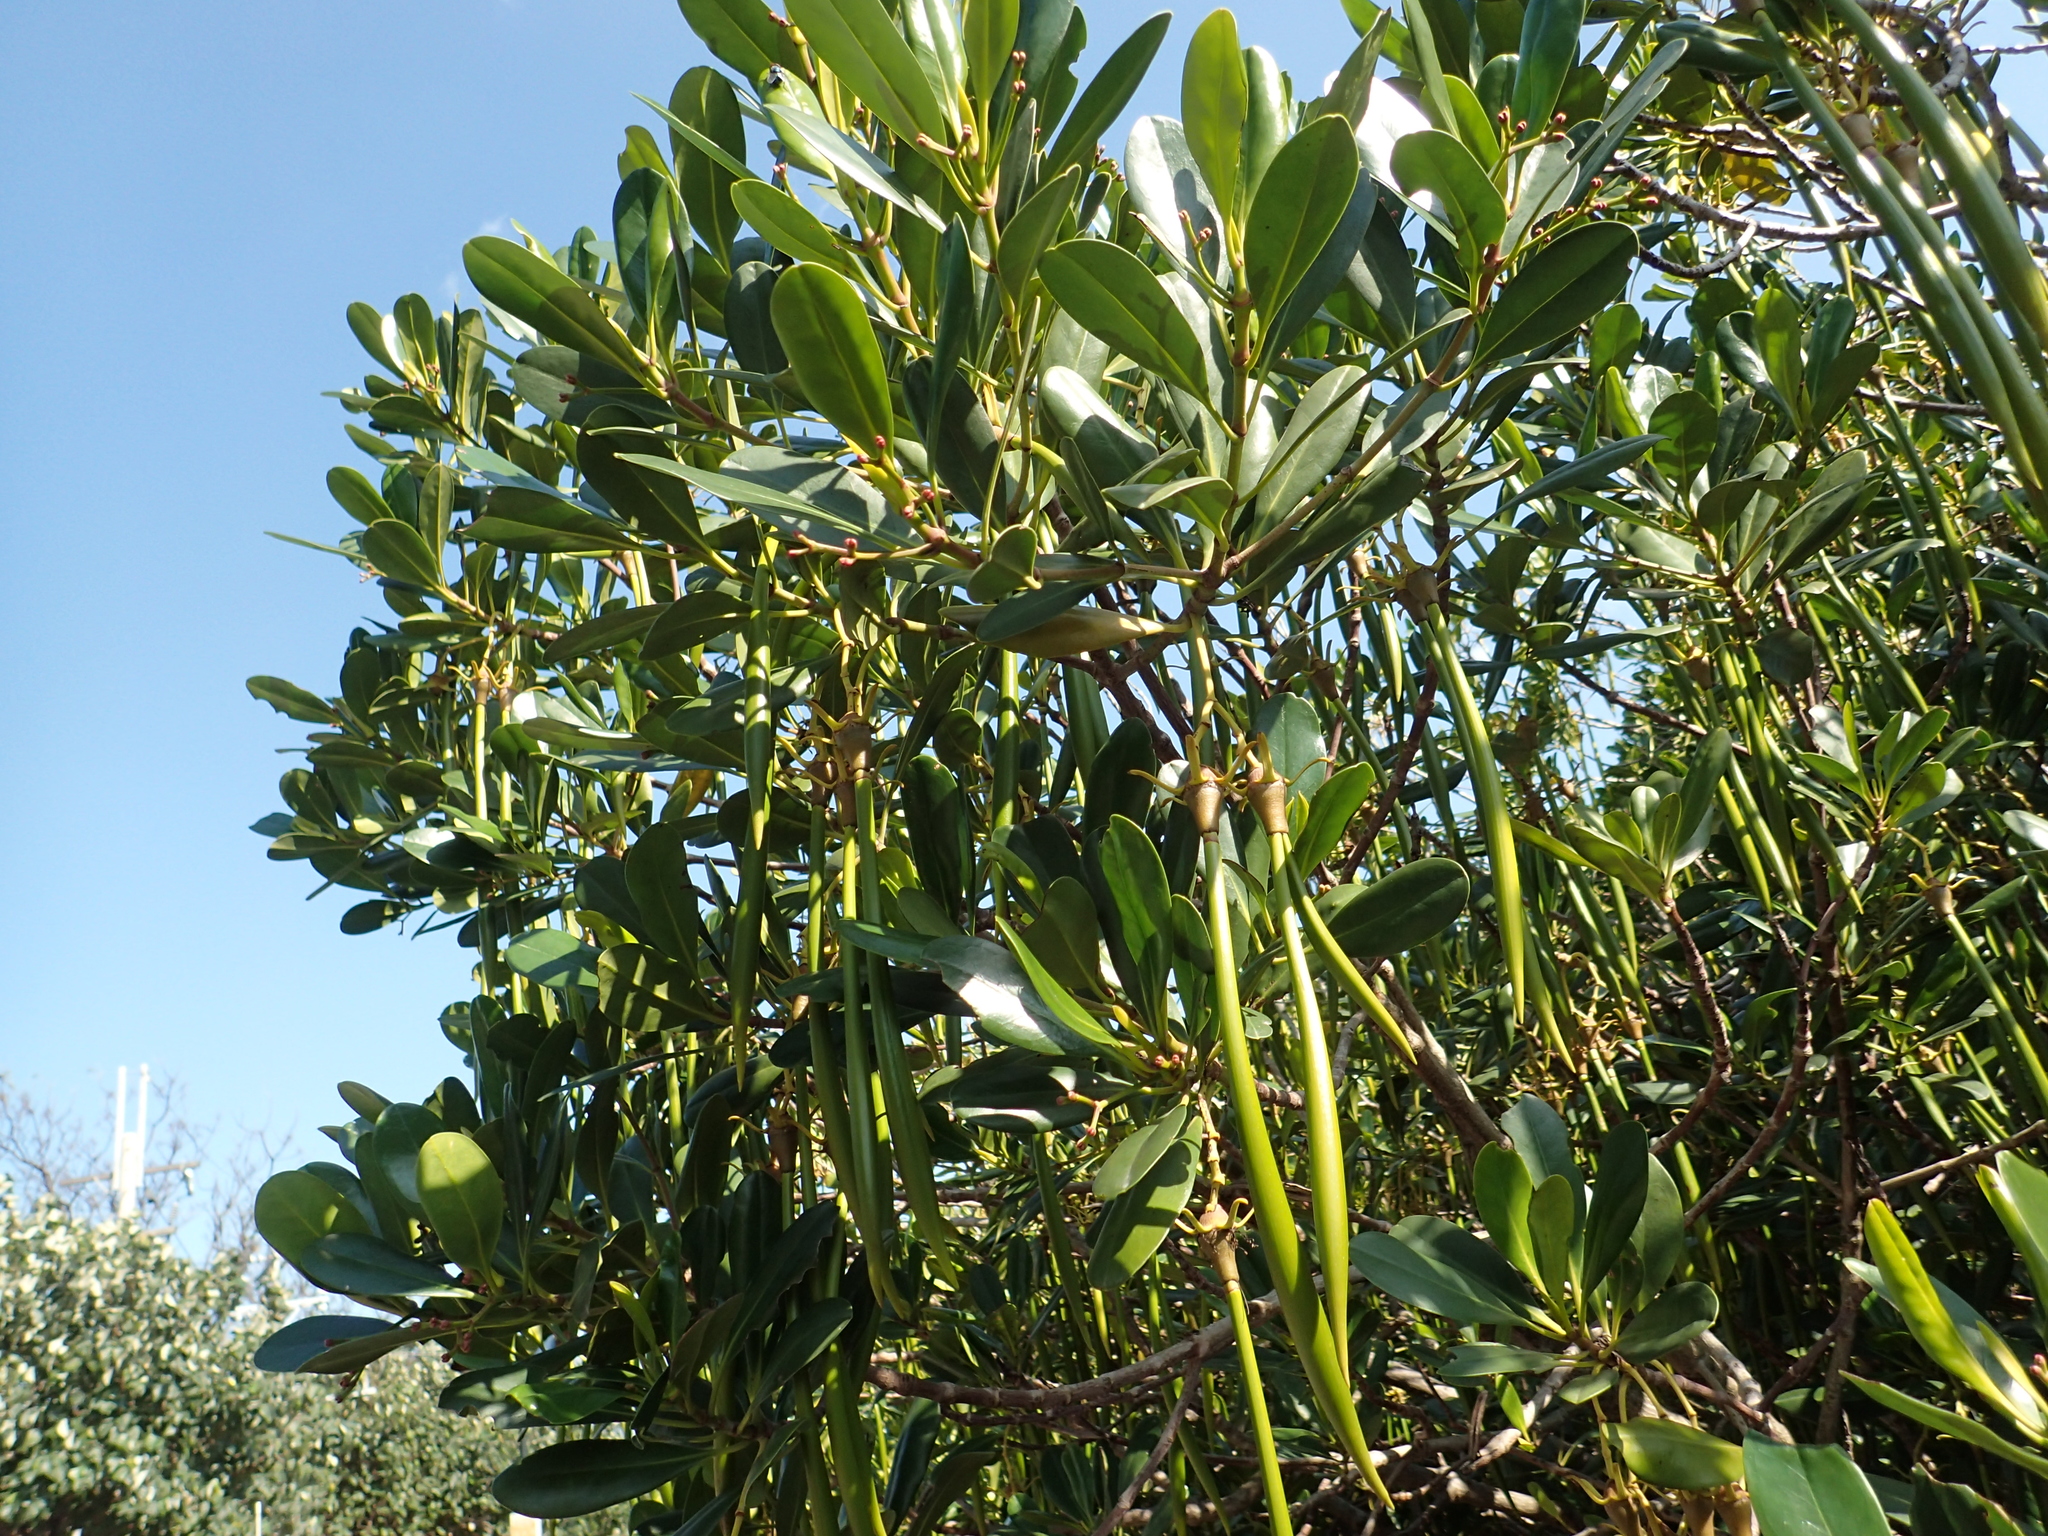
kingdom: Plantae
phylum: Tracheophyta
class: Magnoliopsida
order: Malpighiales
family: Rhizophoraceae
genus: Kandelia
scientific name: Kandelia obovata
